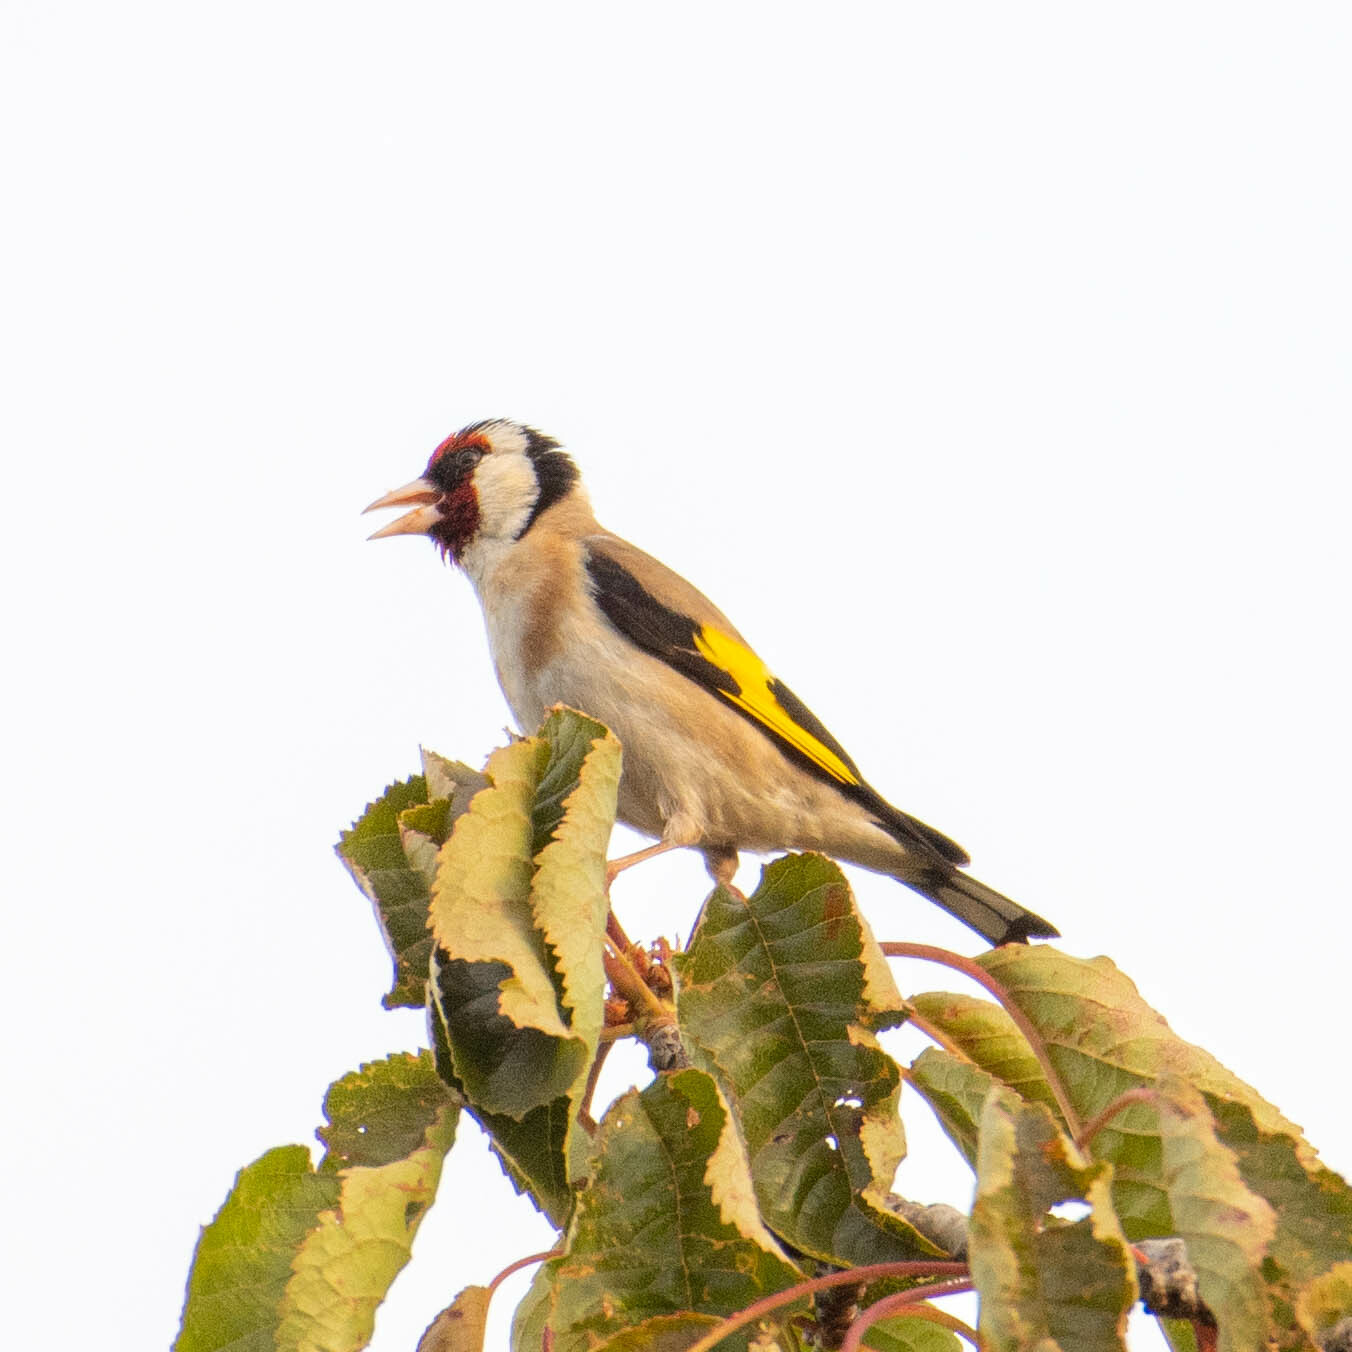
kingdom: Animalia
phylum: Chordata
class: Aves
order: Passeriformes
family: Fringillidae
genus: Carduelis
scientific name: Carduelis carduelis
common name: European goldfinch
